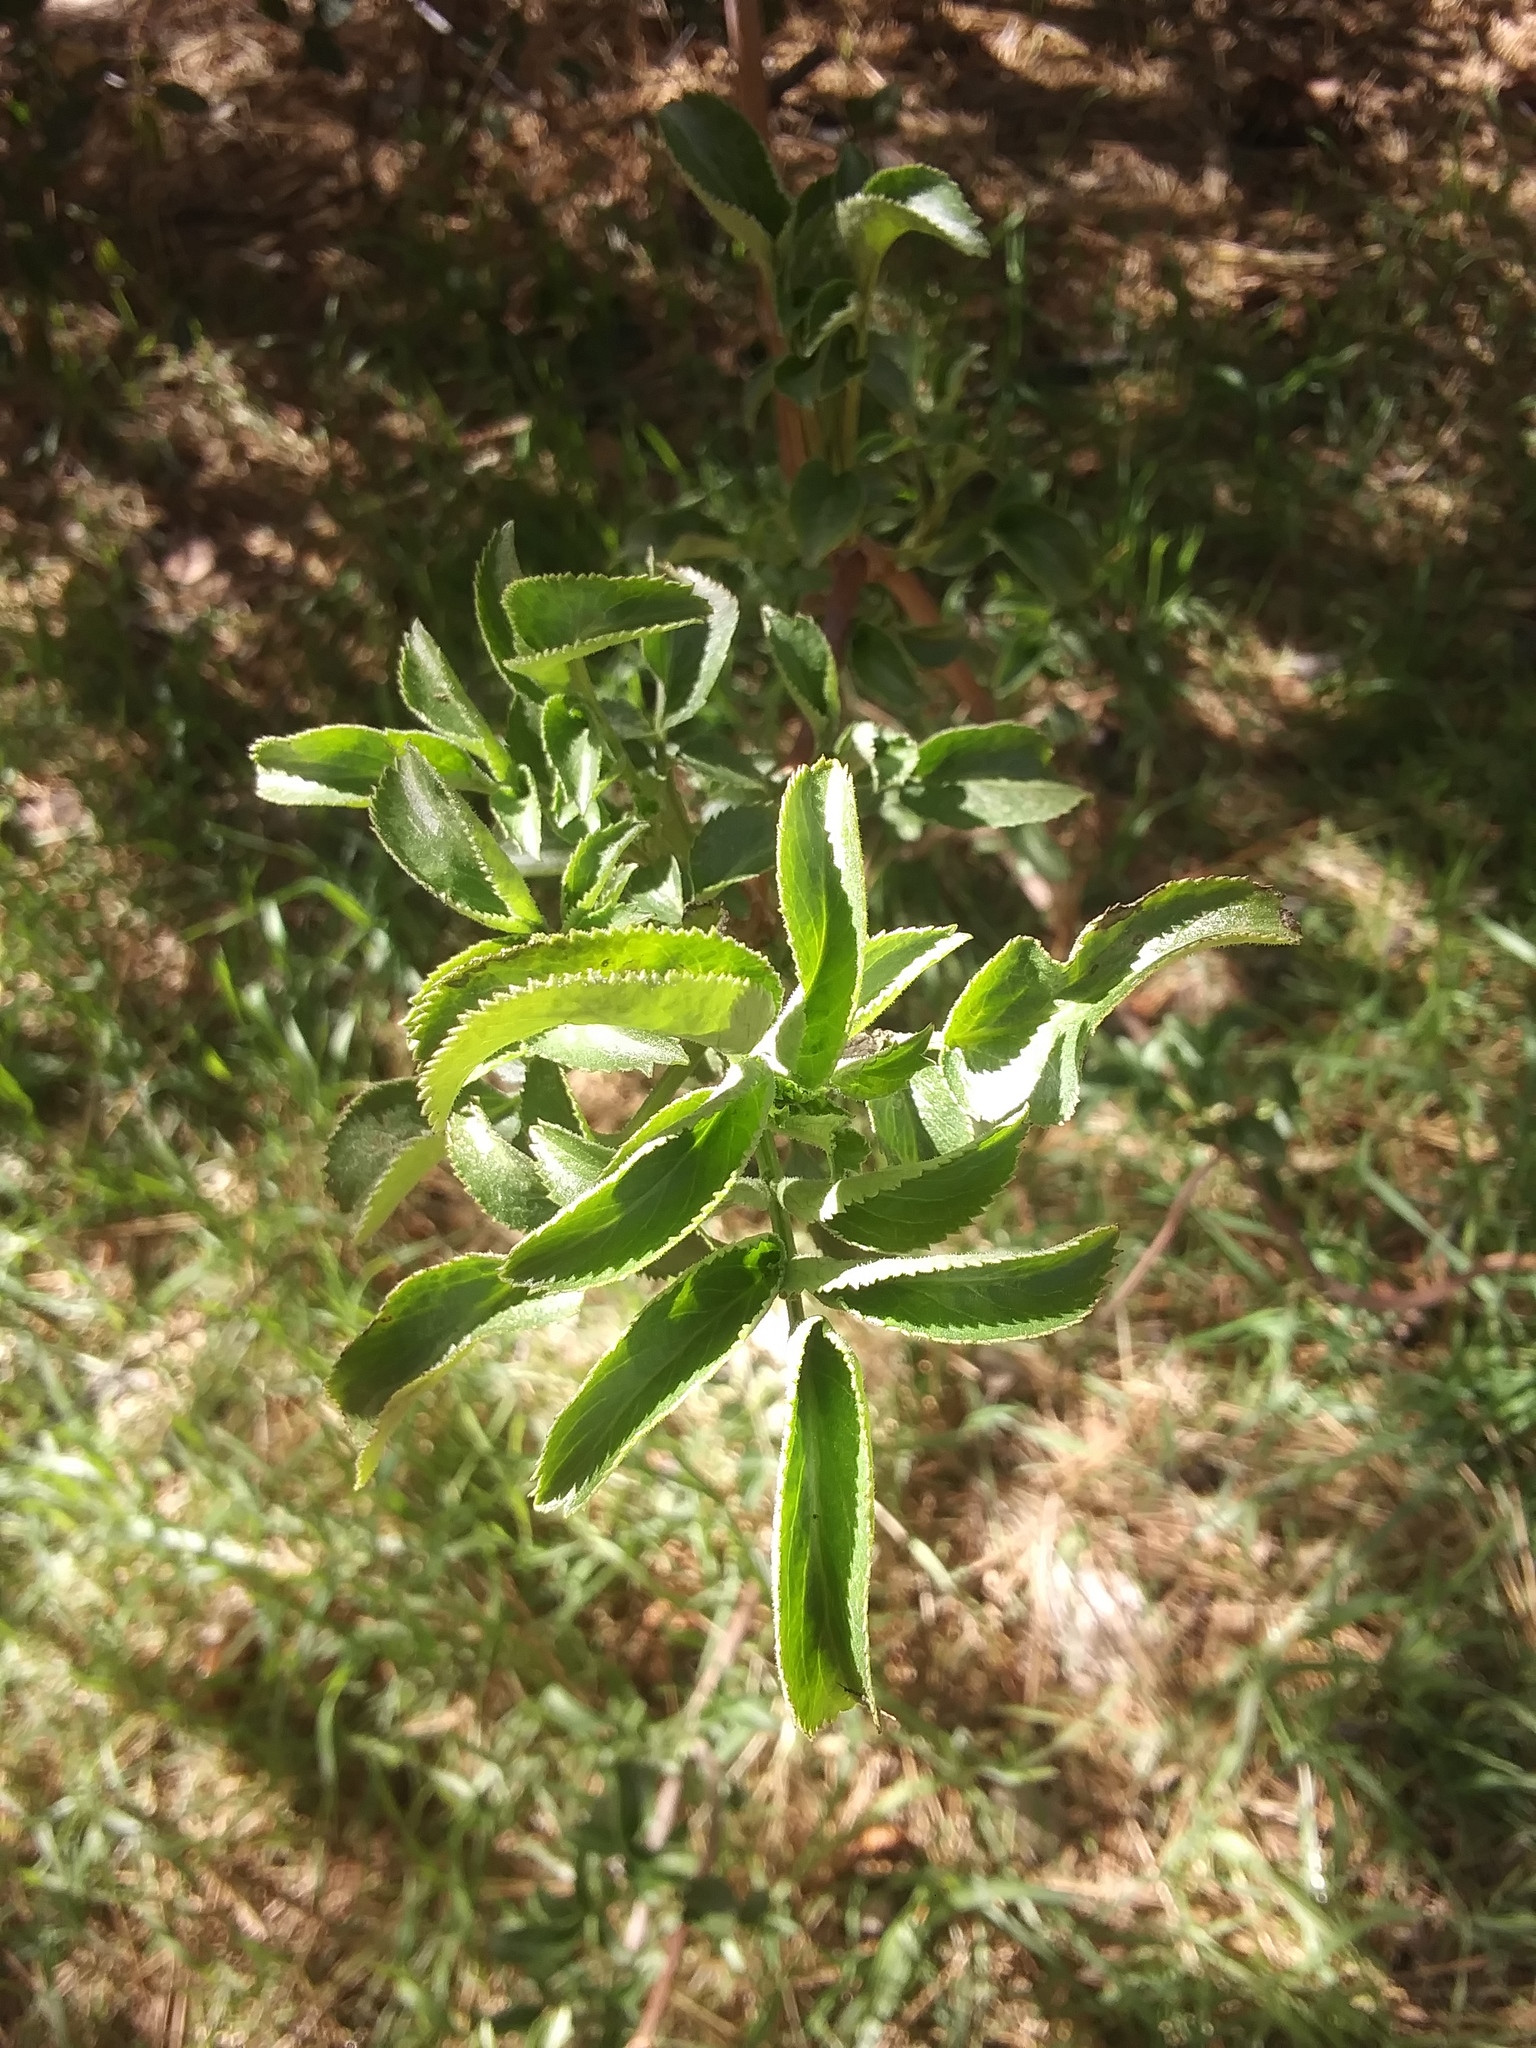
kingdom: Plantae
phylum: Tracheophyta
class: Magnoliopsida
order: Dipsacales
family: Viburnaceae
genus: Sambucus
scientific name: Sambucus cerulea
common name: Blue elder
